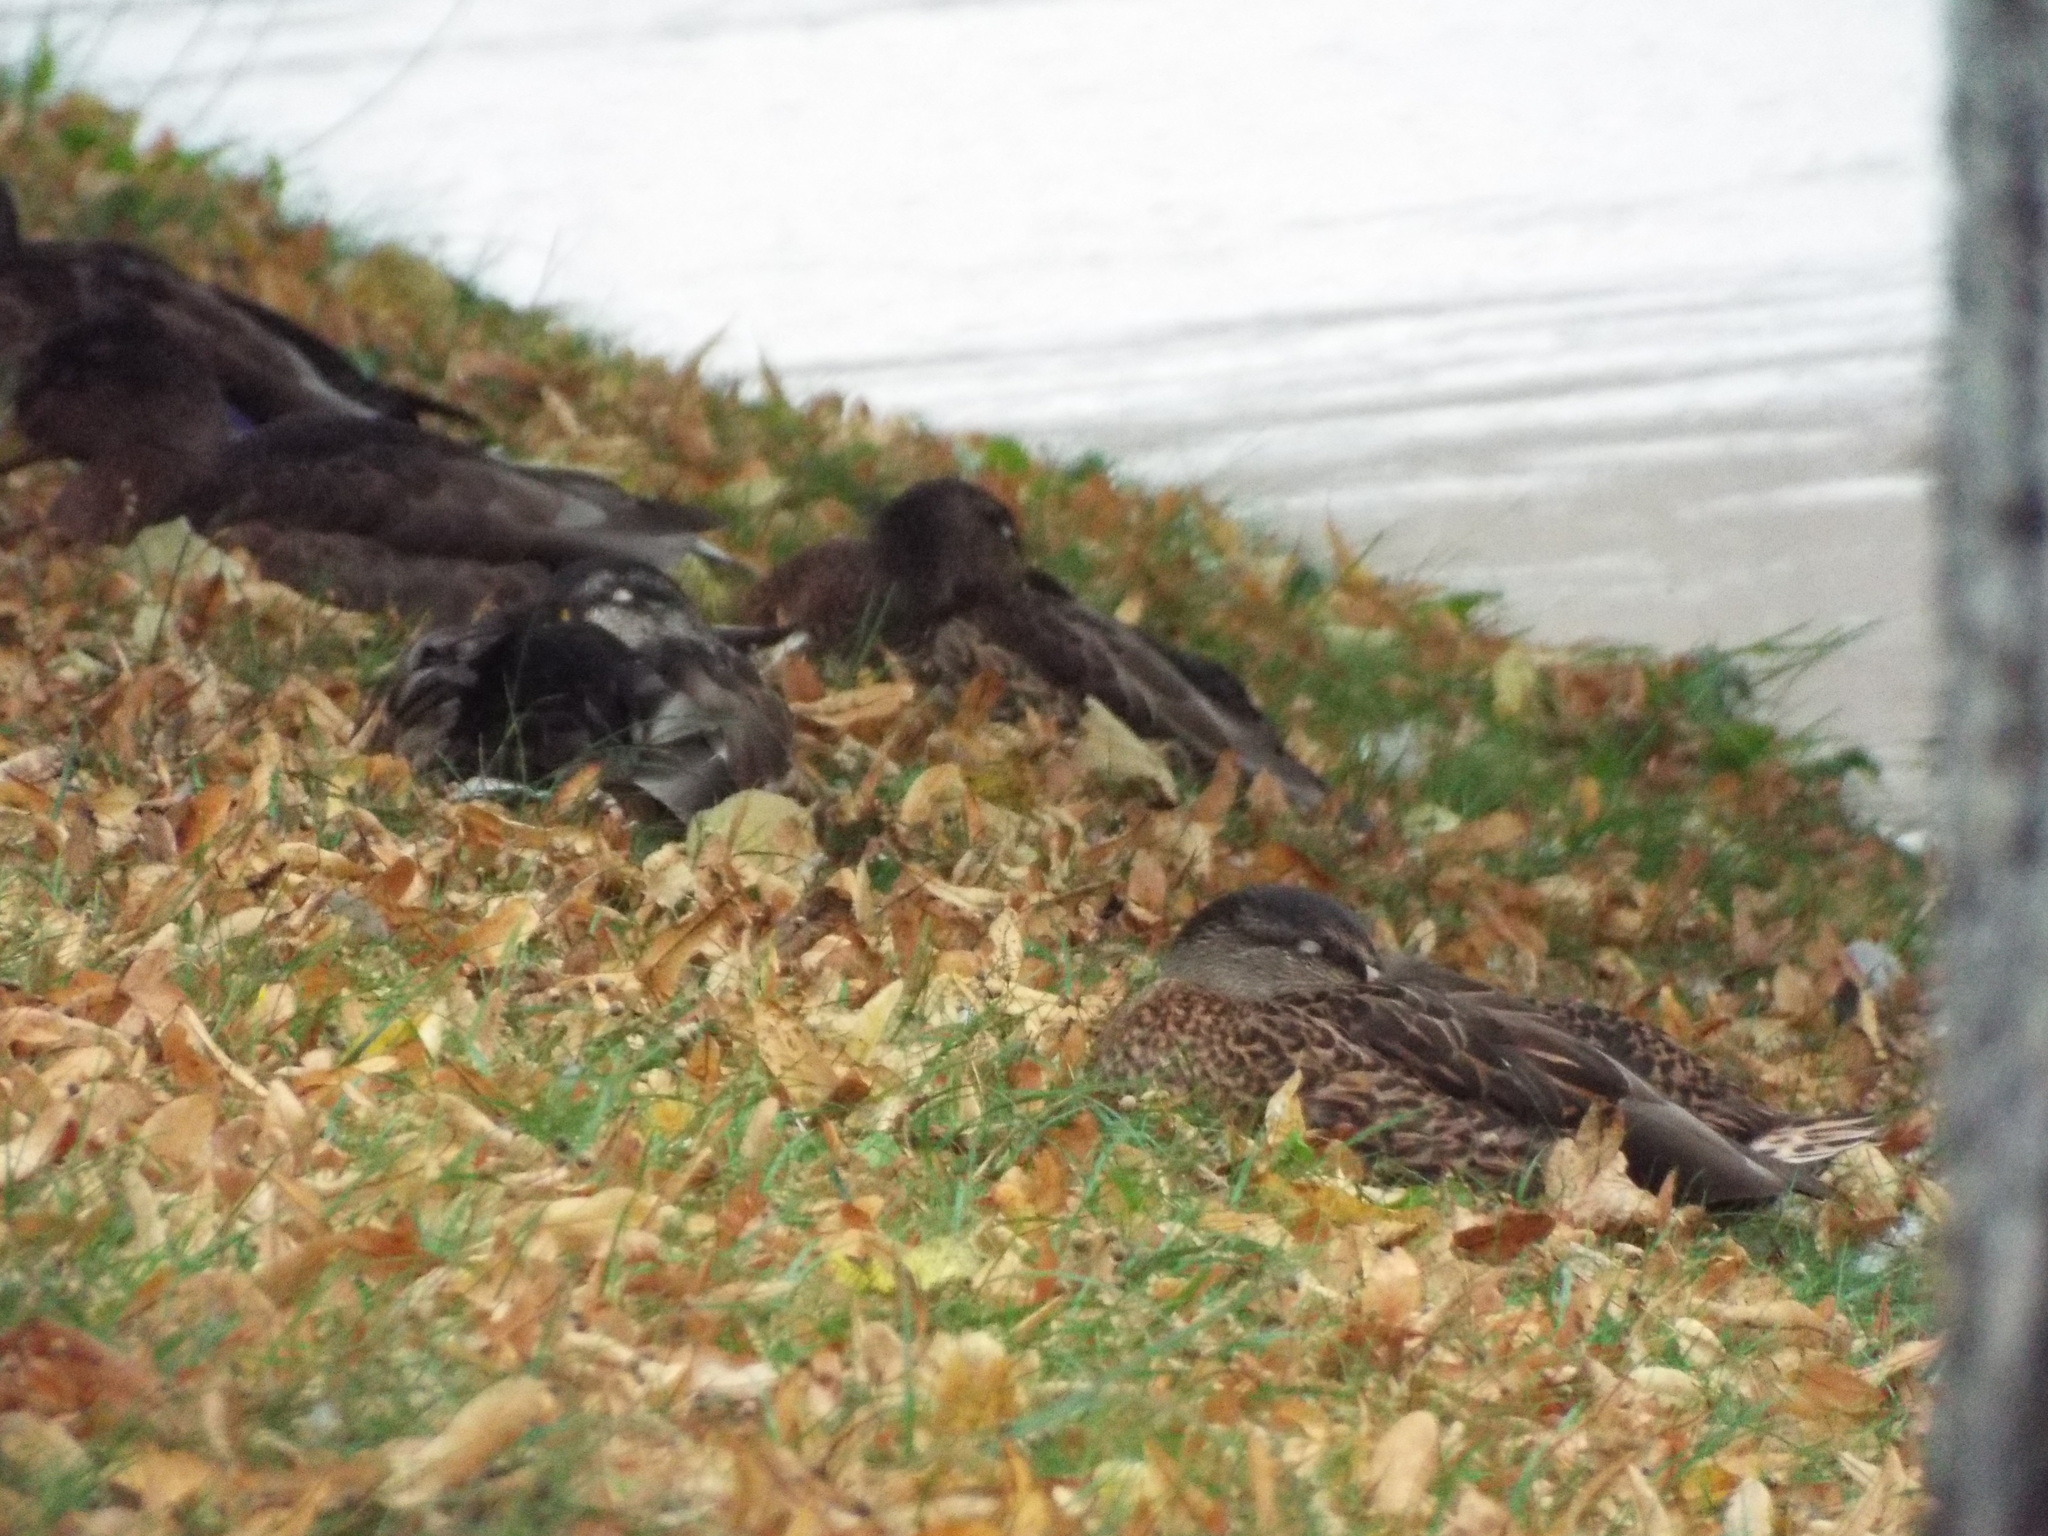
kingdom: Animalia
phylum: Chordata
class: Aves
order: Anseriformes
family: Anatidae
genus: Anas
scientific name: Anas platyrhynchos
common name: Mallard
